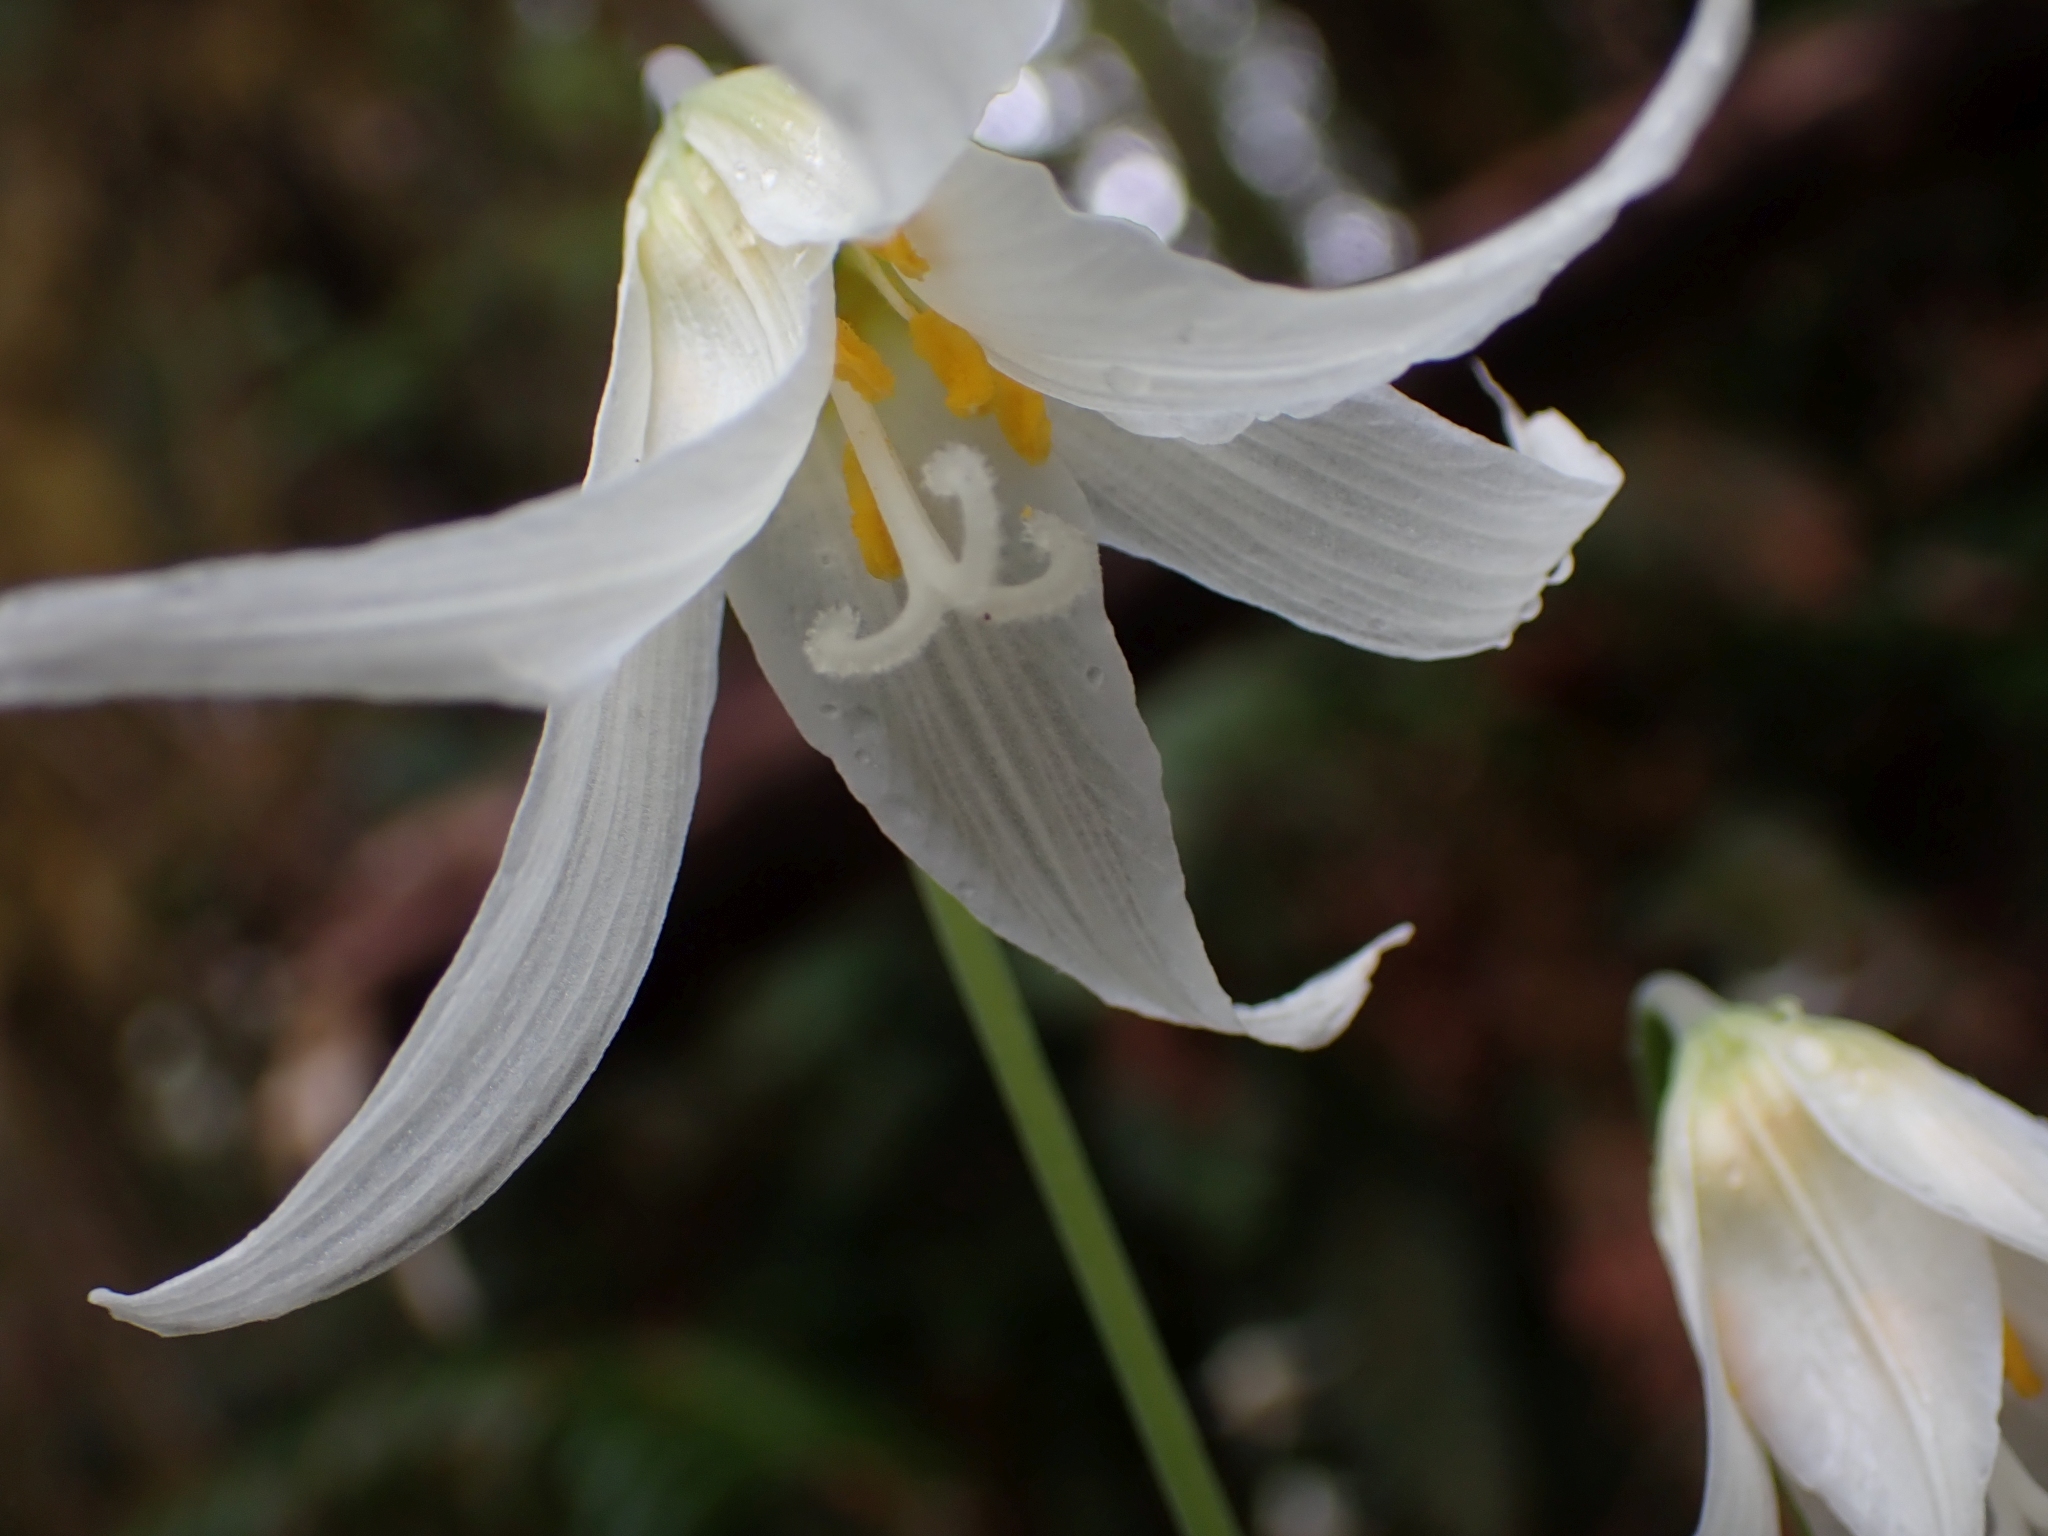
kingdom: Plantae
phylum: Tracheophyta
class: Liliopsida
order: Liliales
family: Liliaceae
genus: Erythronium
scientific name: Erythronium oregonum
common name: Giant adder's-tongue
